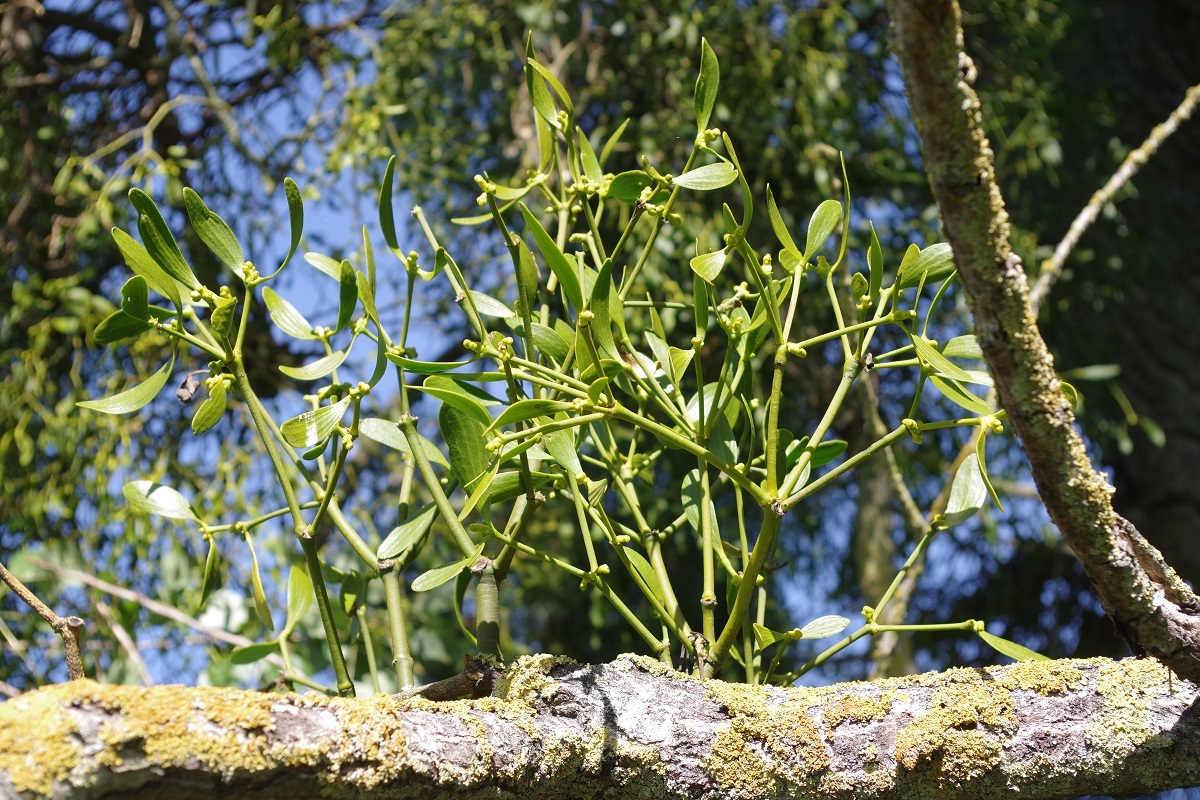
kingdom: Plantae
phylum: Tracheophyta
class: Magnoliopsida
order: Santalales
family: Viscaceae
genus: Viscum
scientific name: Viscum album
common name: Mistletoe
